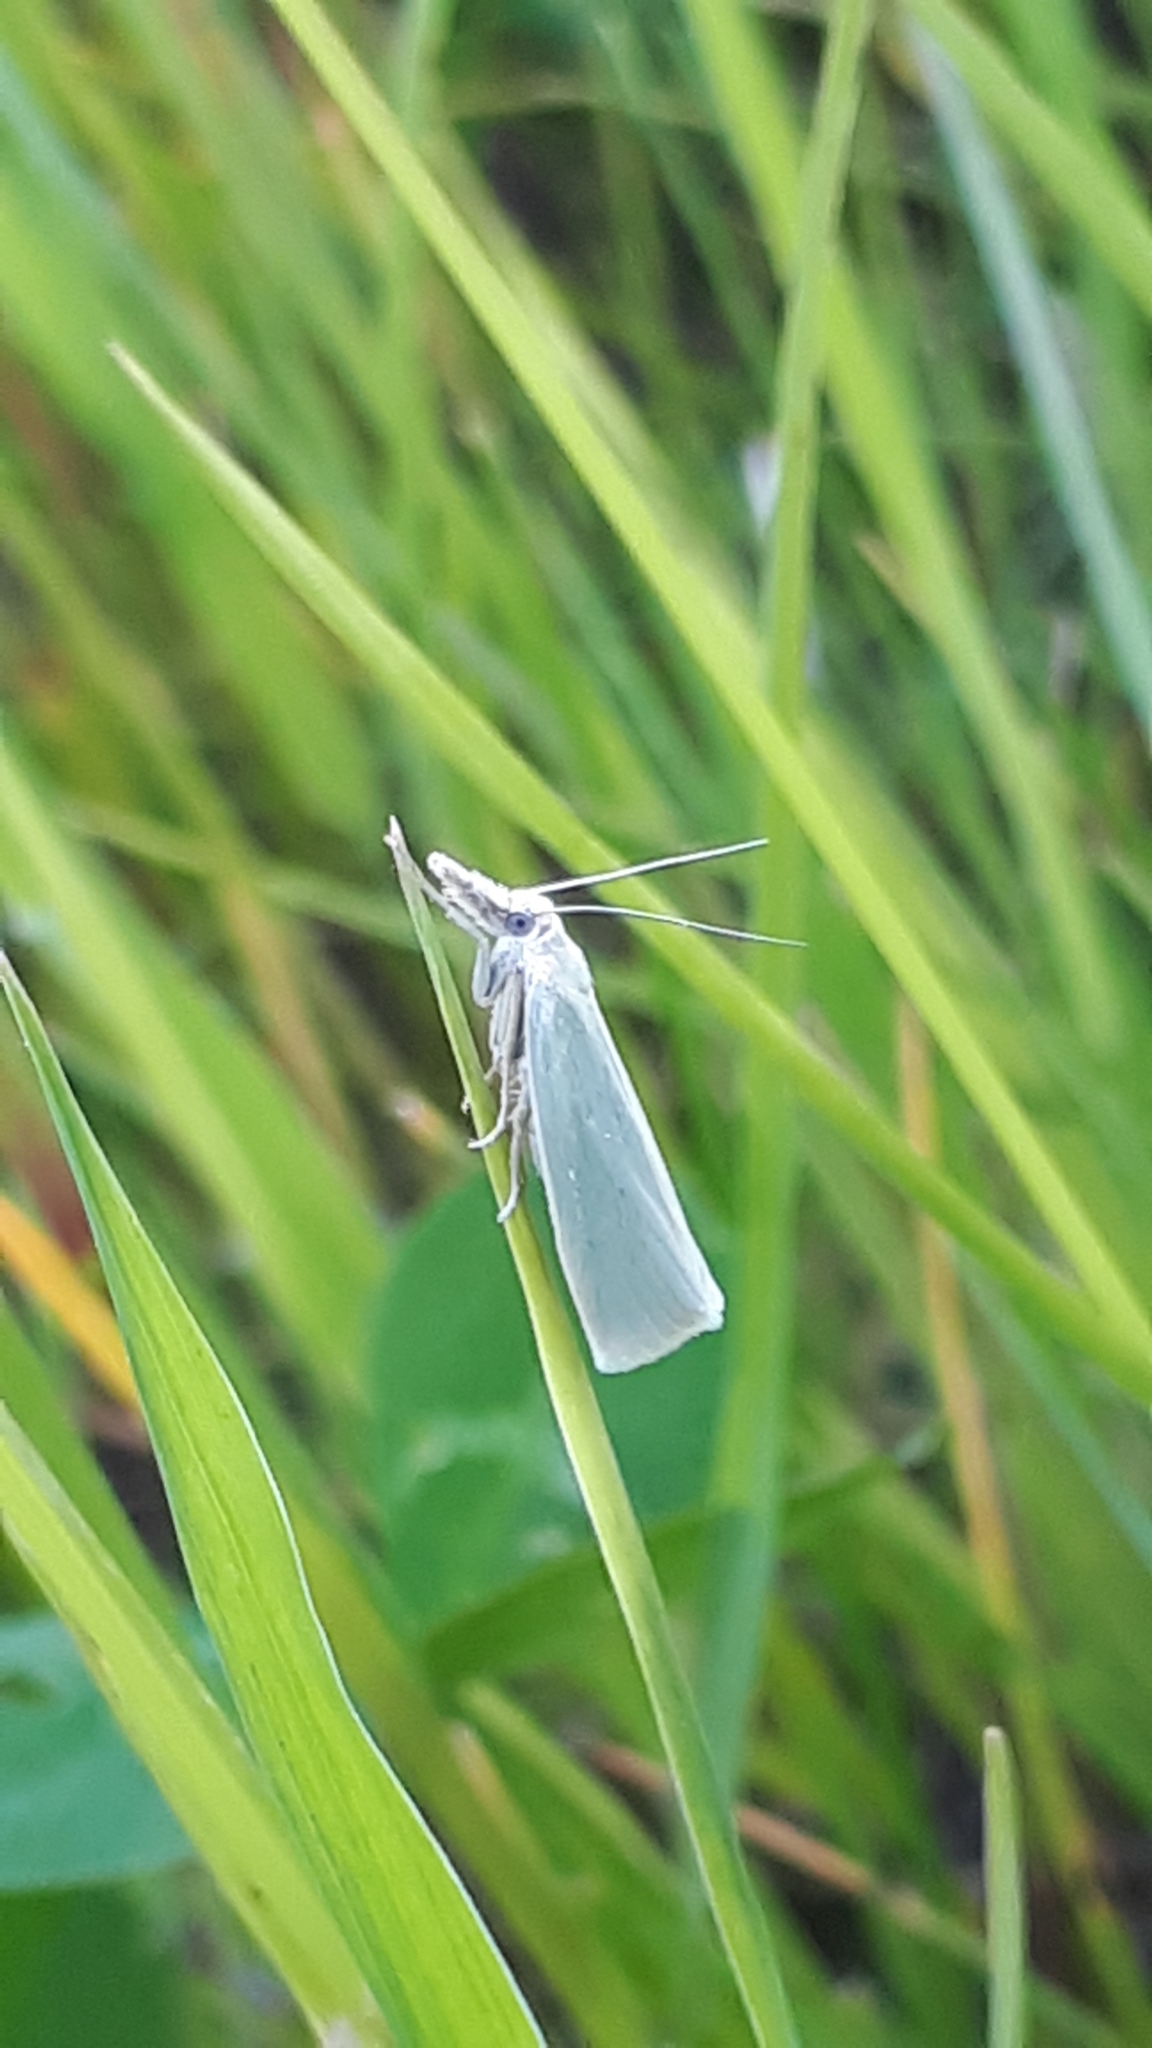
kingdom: Animalia
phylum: Arthropoda
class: Insecta
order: Lepidoptera
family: Crambidae
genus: Crambus
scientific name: Crambus perlellus
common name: Yellow satin veneer
